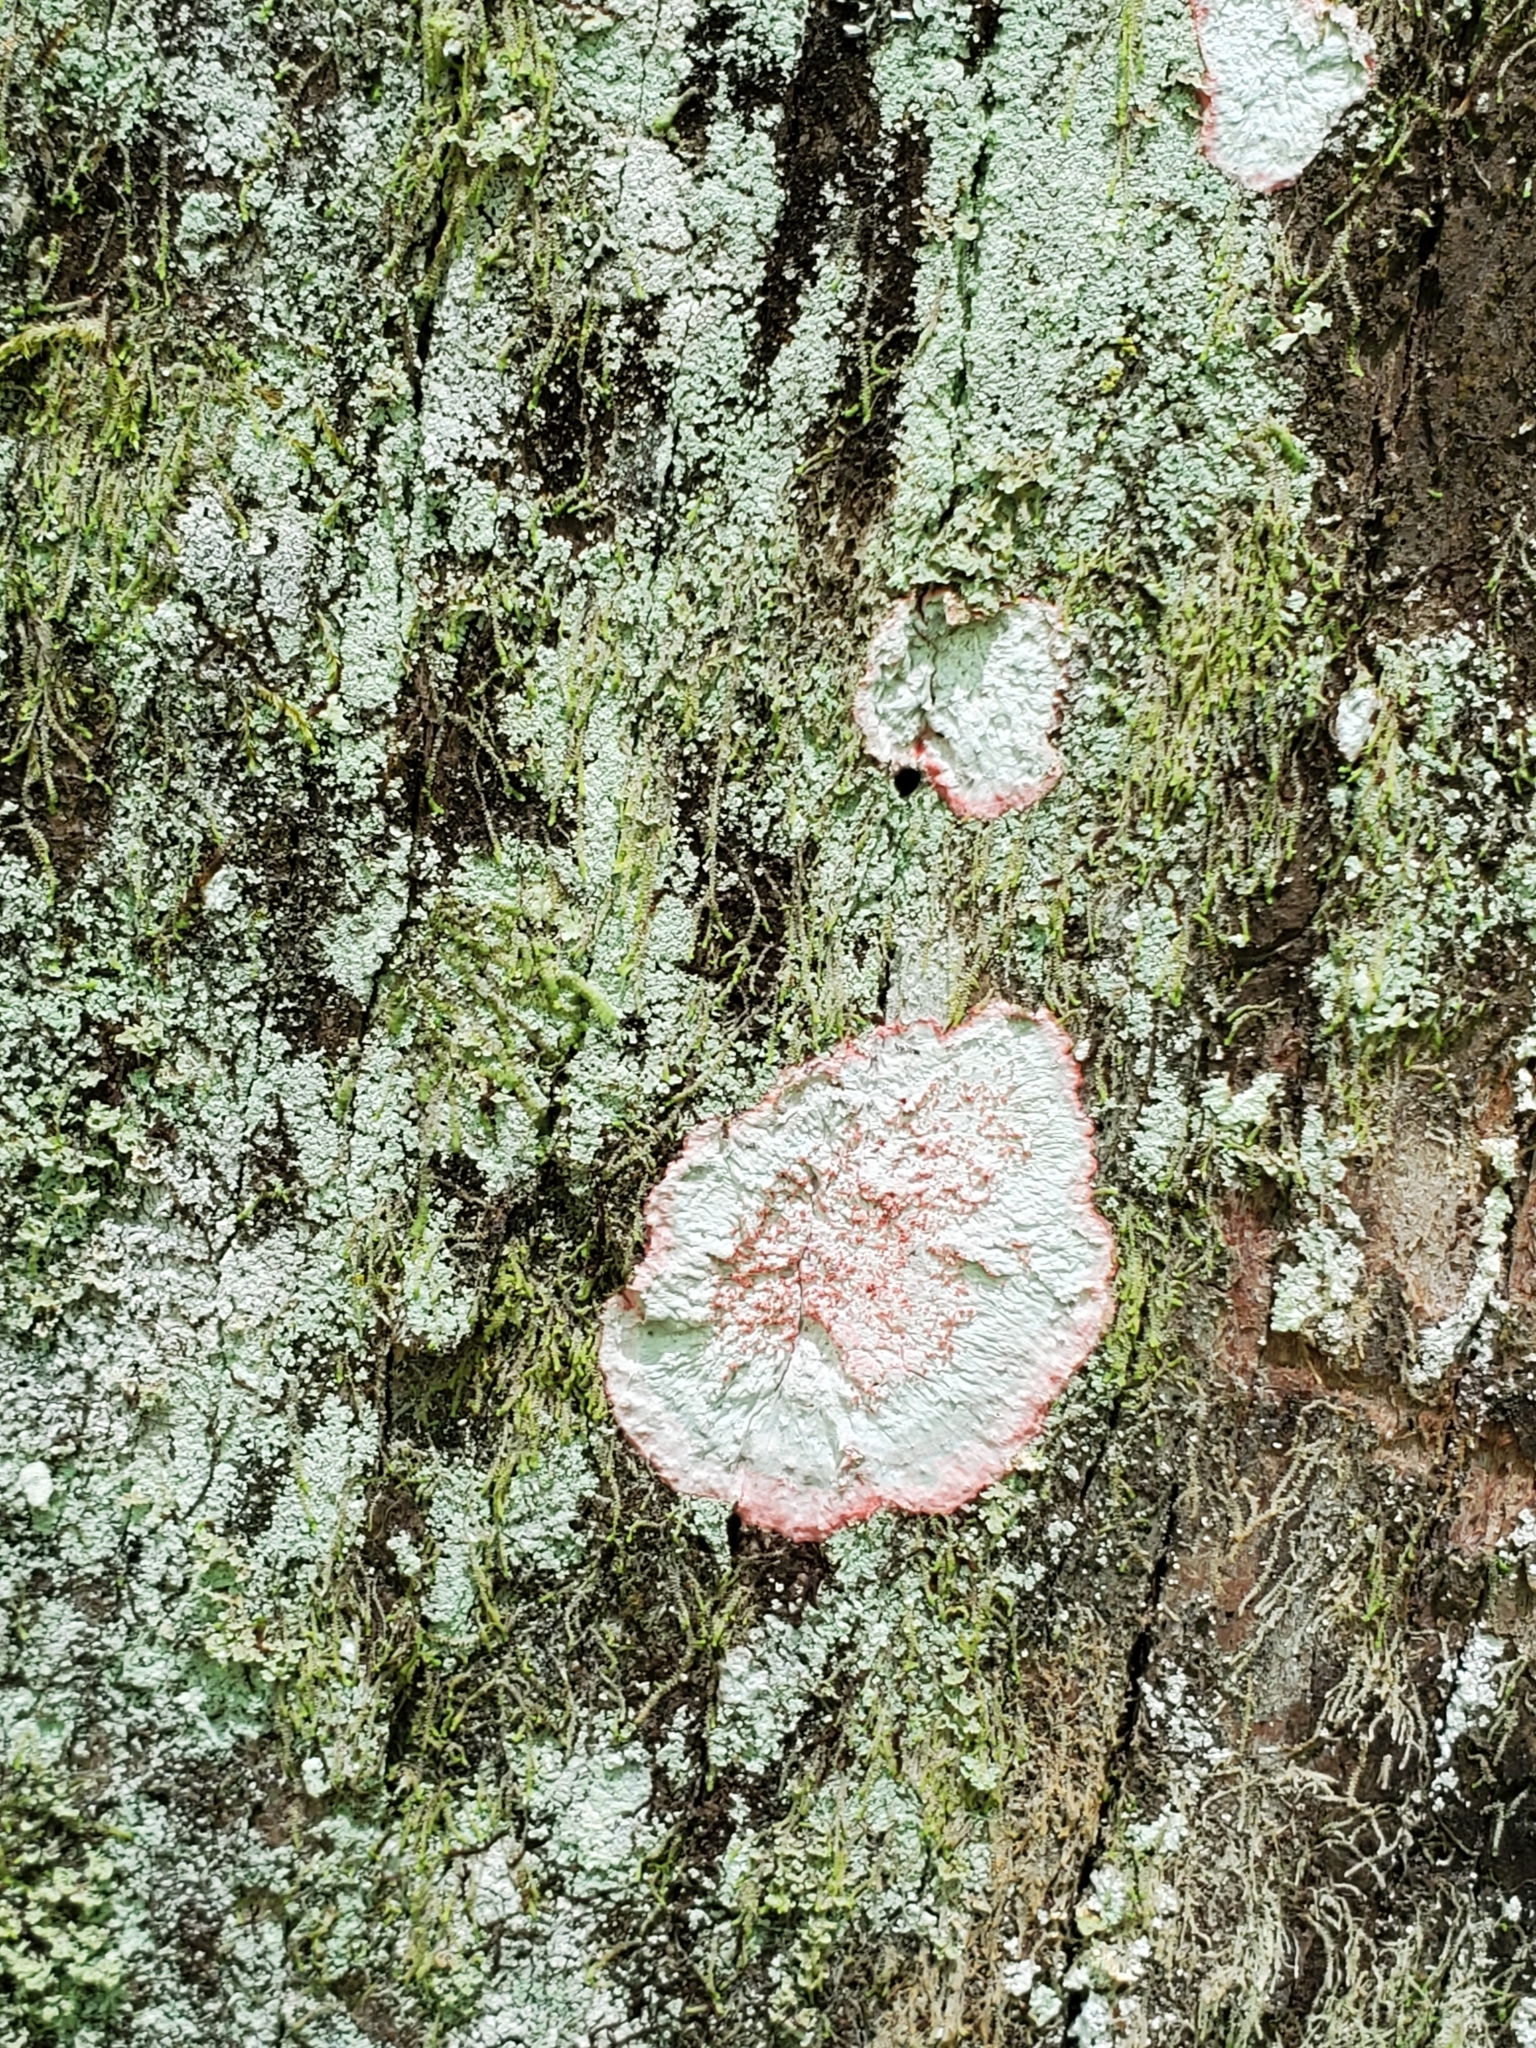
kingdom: Fungi
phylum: Ascomycota
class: Arthoniomycetes
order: Arthoniales
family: Arthoniaceae
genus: Herpothallon
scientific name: Herpothallon rubrocinctum
